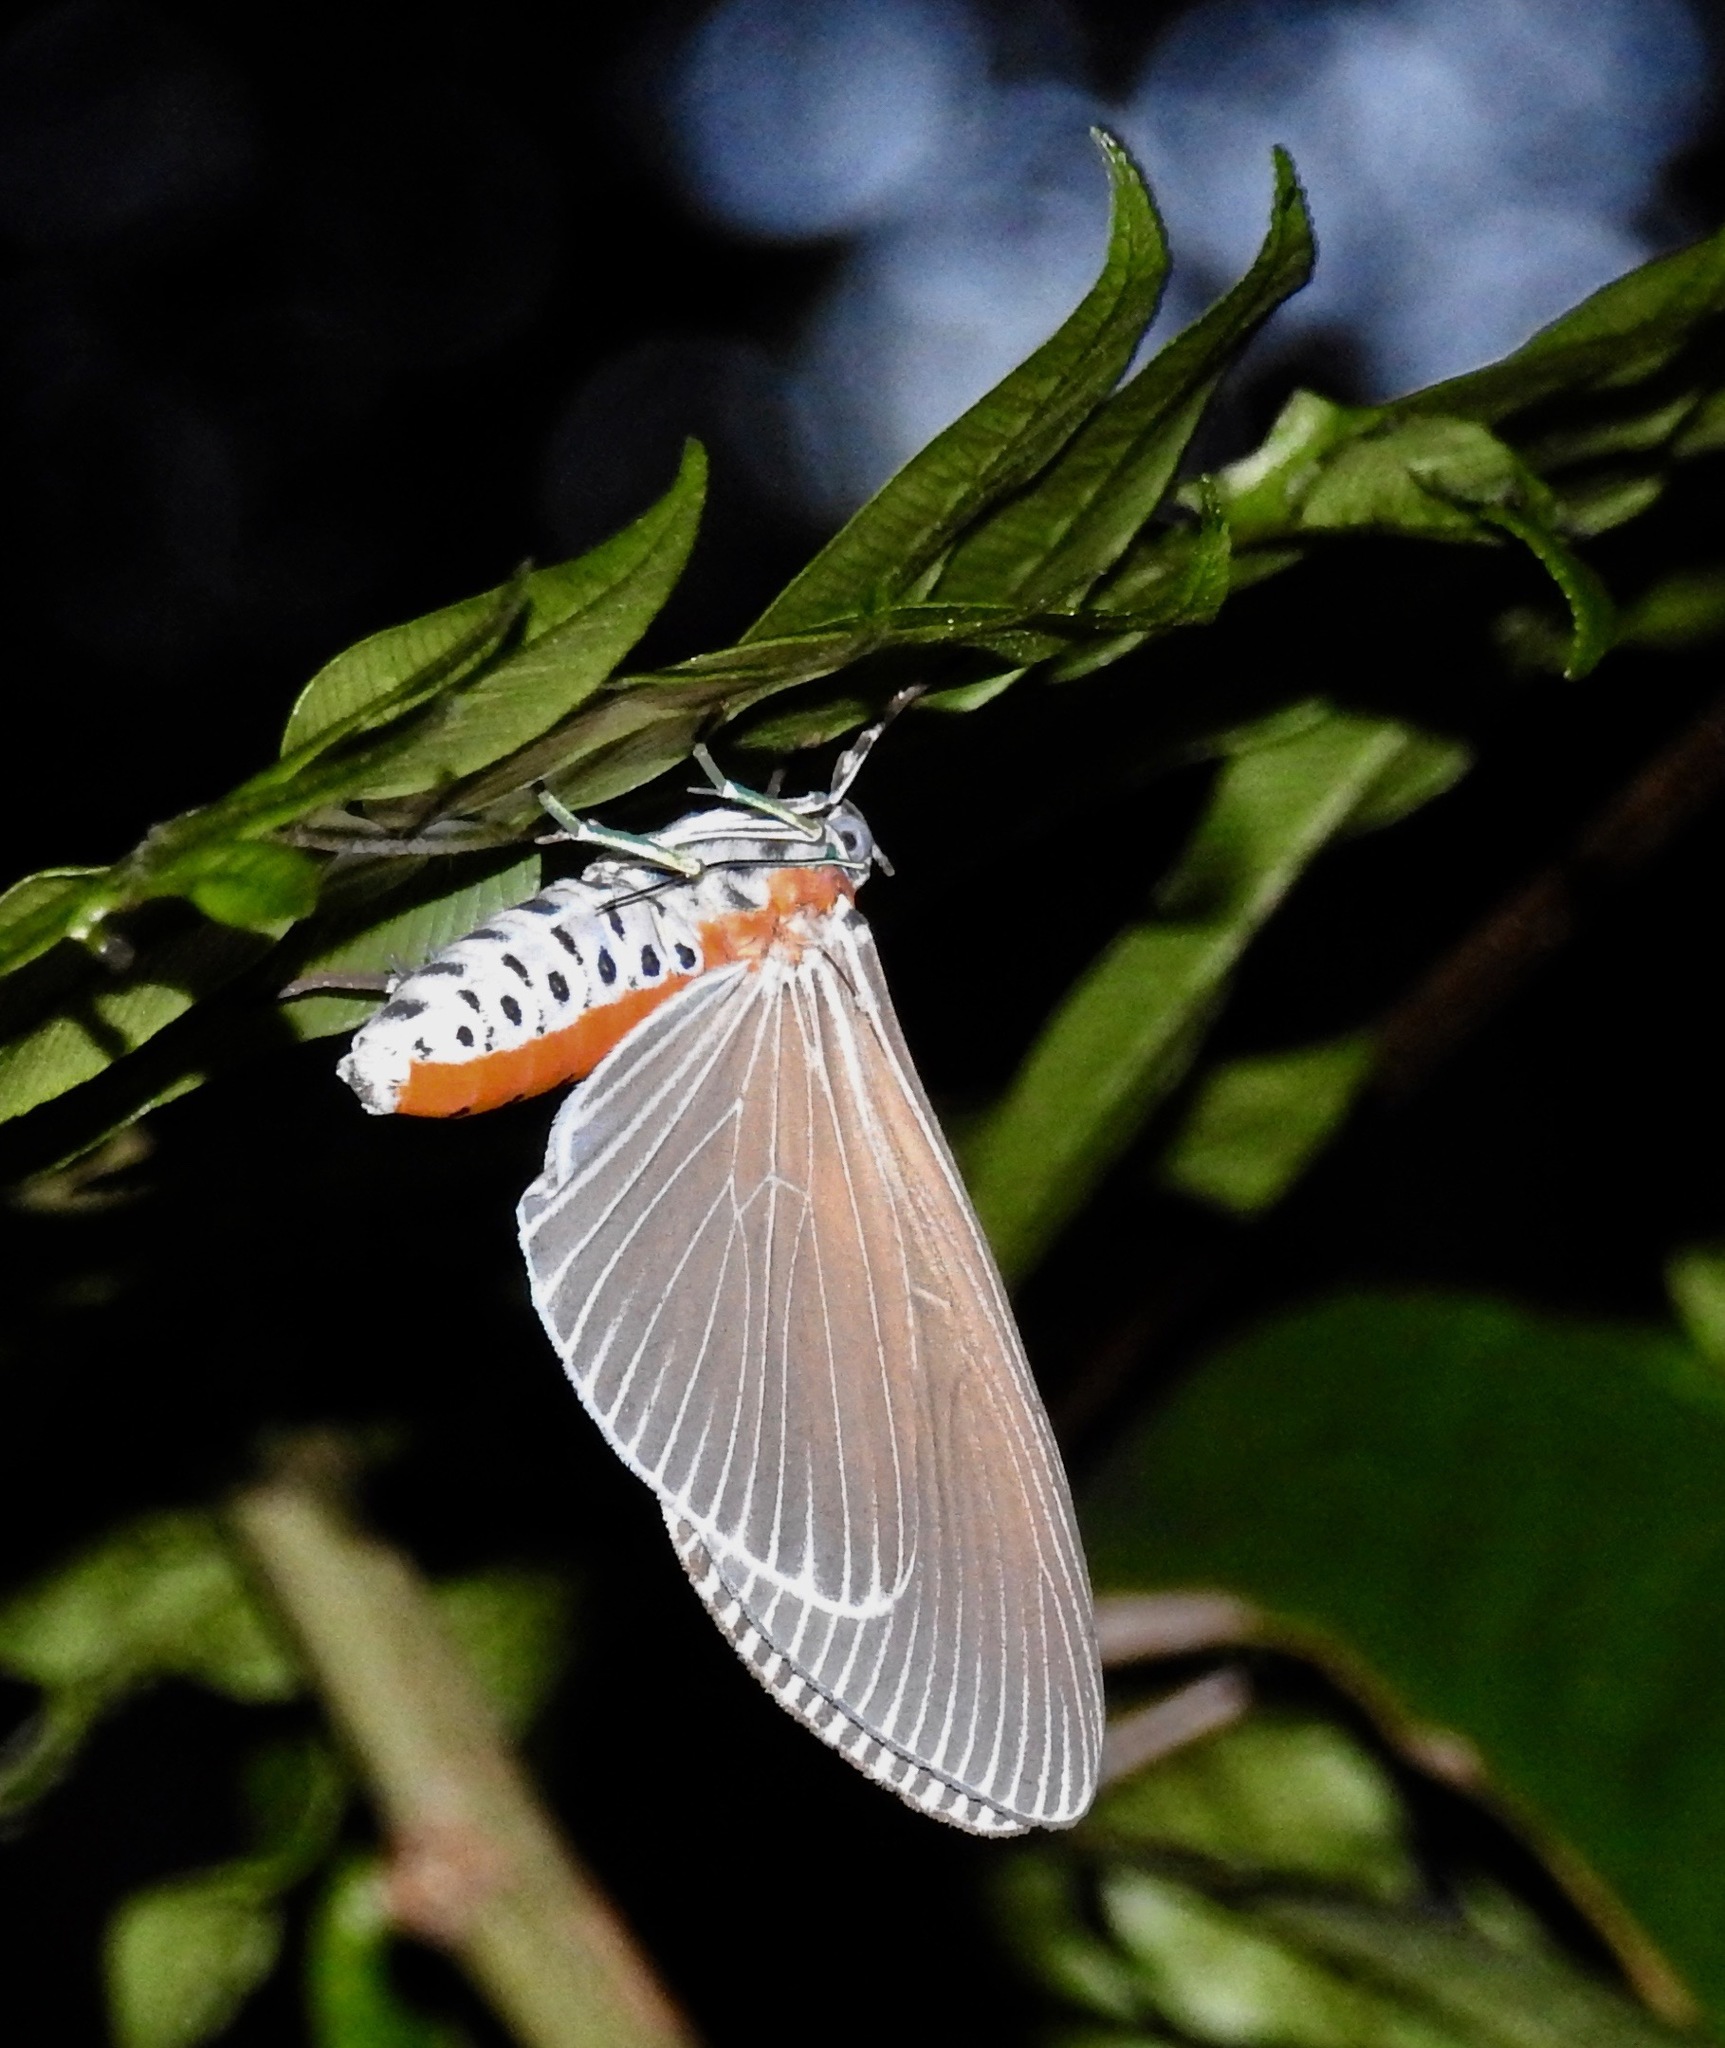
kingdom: Animalia
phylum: Arthropoda
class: Insecta
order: Lepidoptera
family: Erebidae
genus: Euplocia
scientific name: Euplocia membliaria
